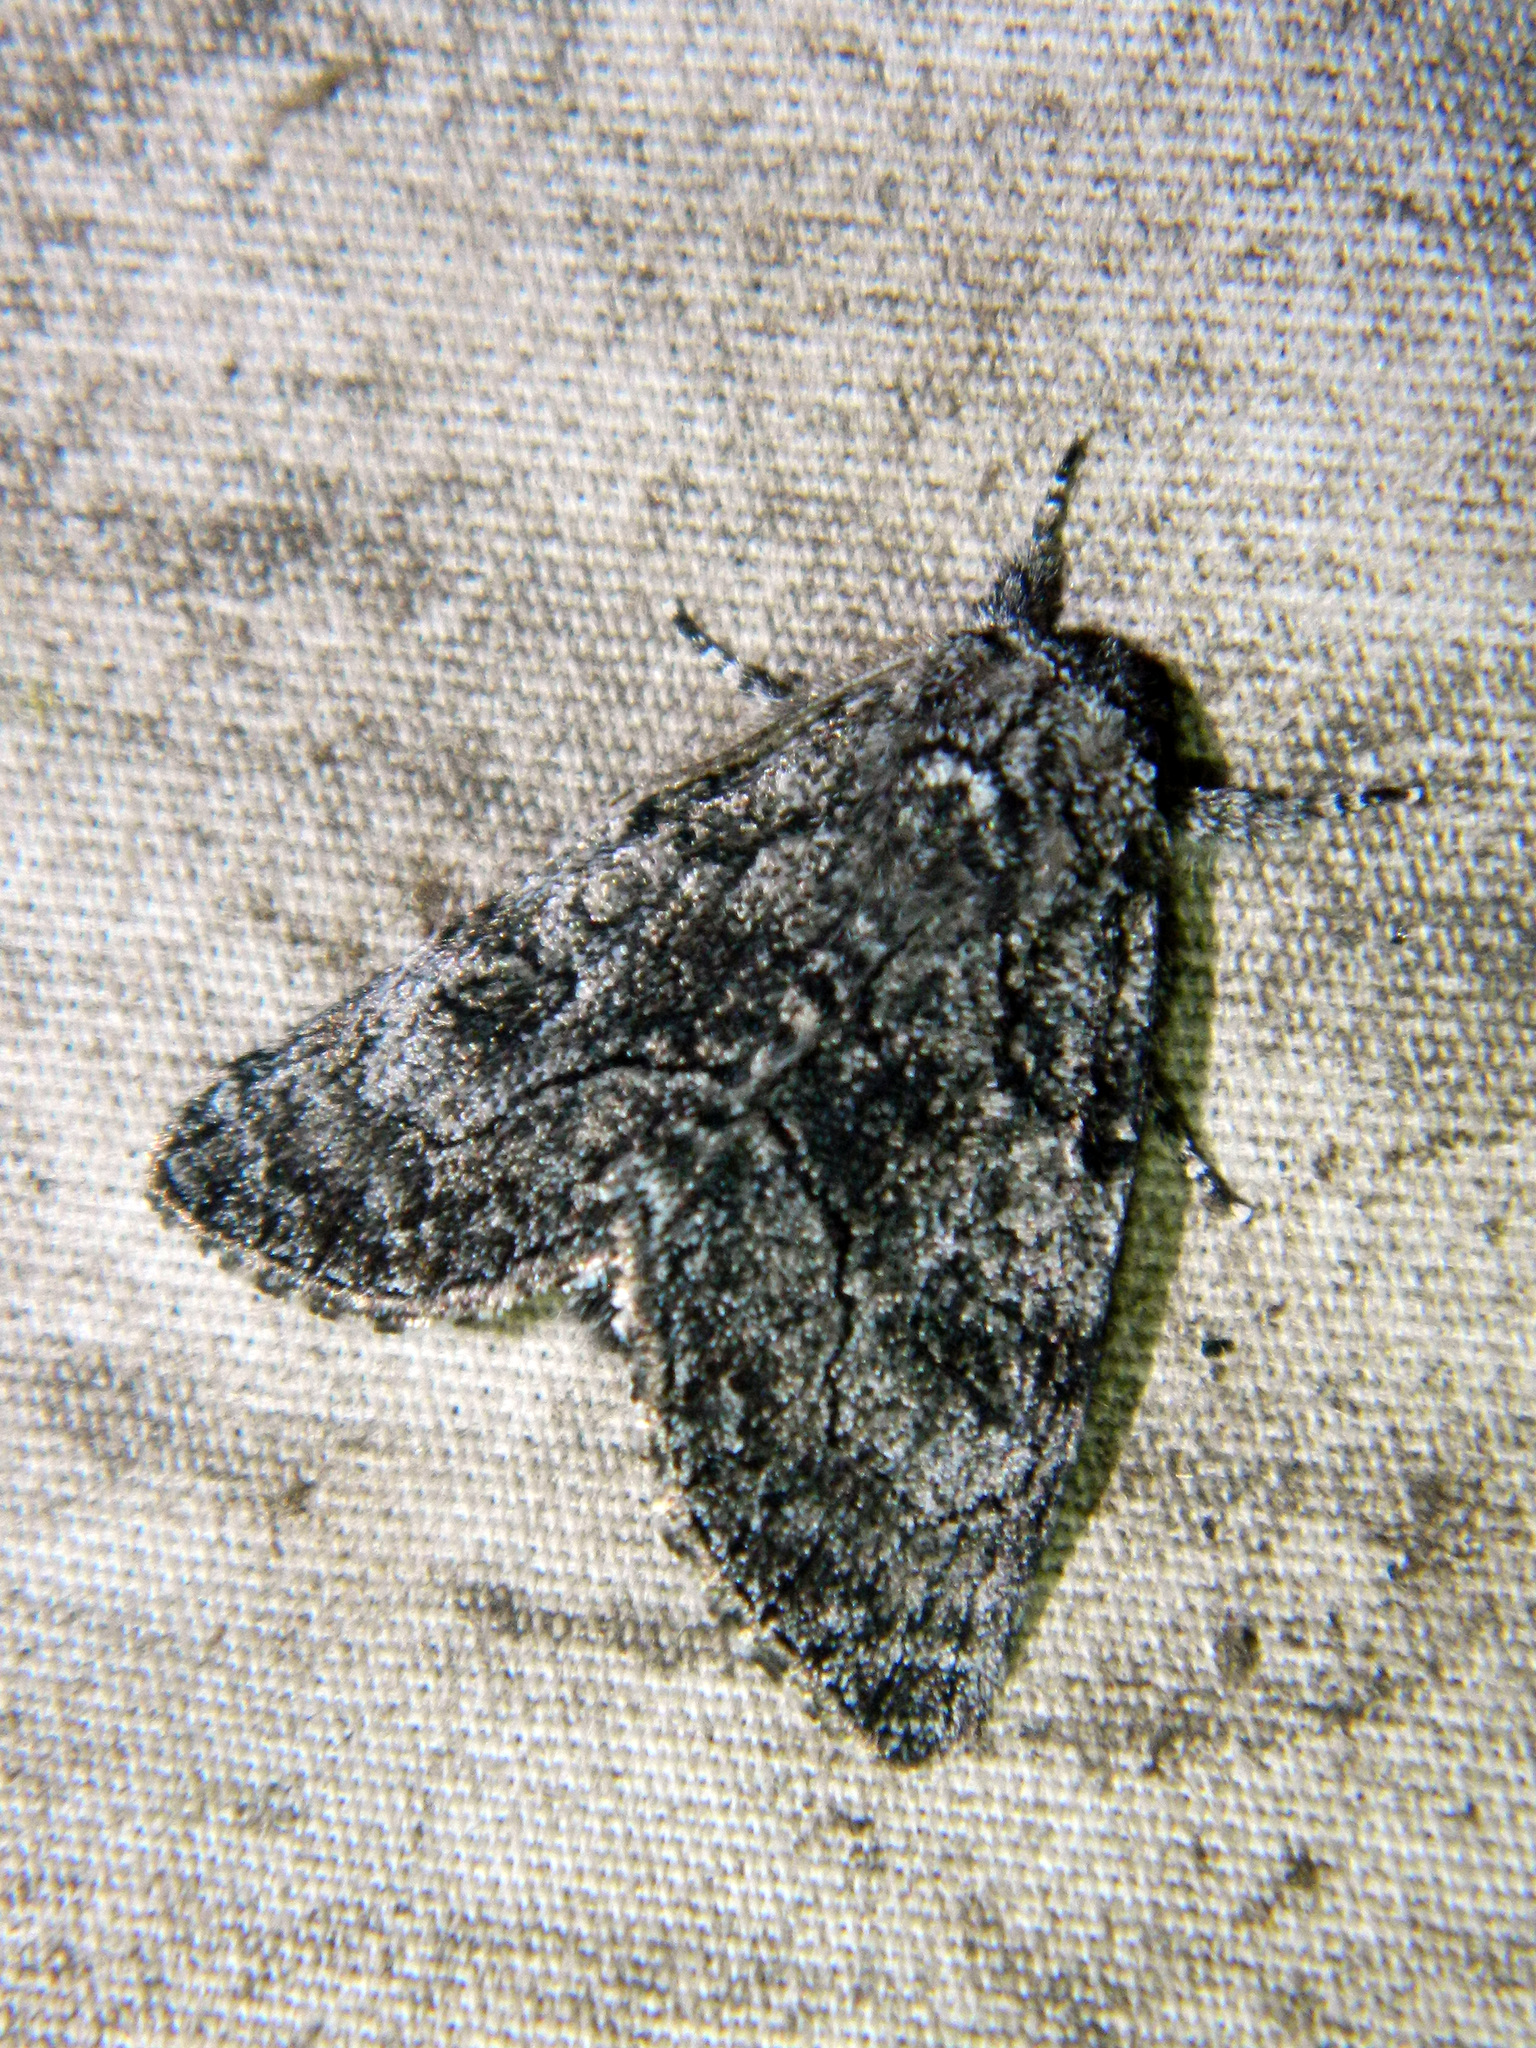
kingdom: Animalia
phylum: Arthropoda
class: Insecta
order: Lepidoptera
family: Noctuidae
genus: Raphia
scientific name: Raphia frater
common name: Brother
